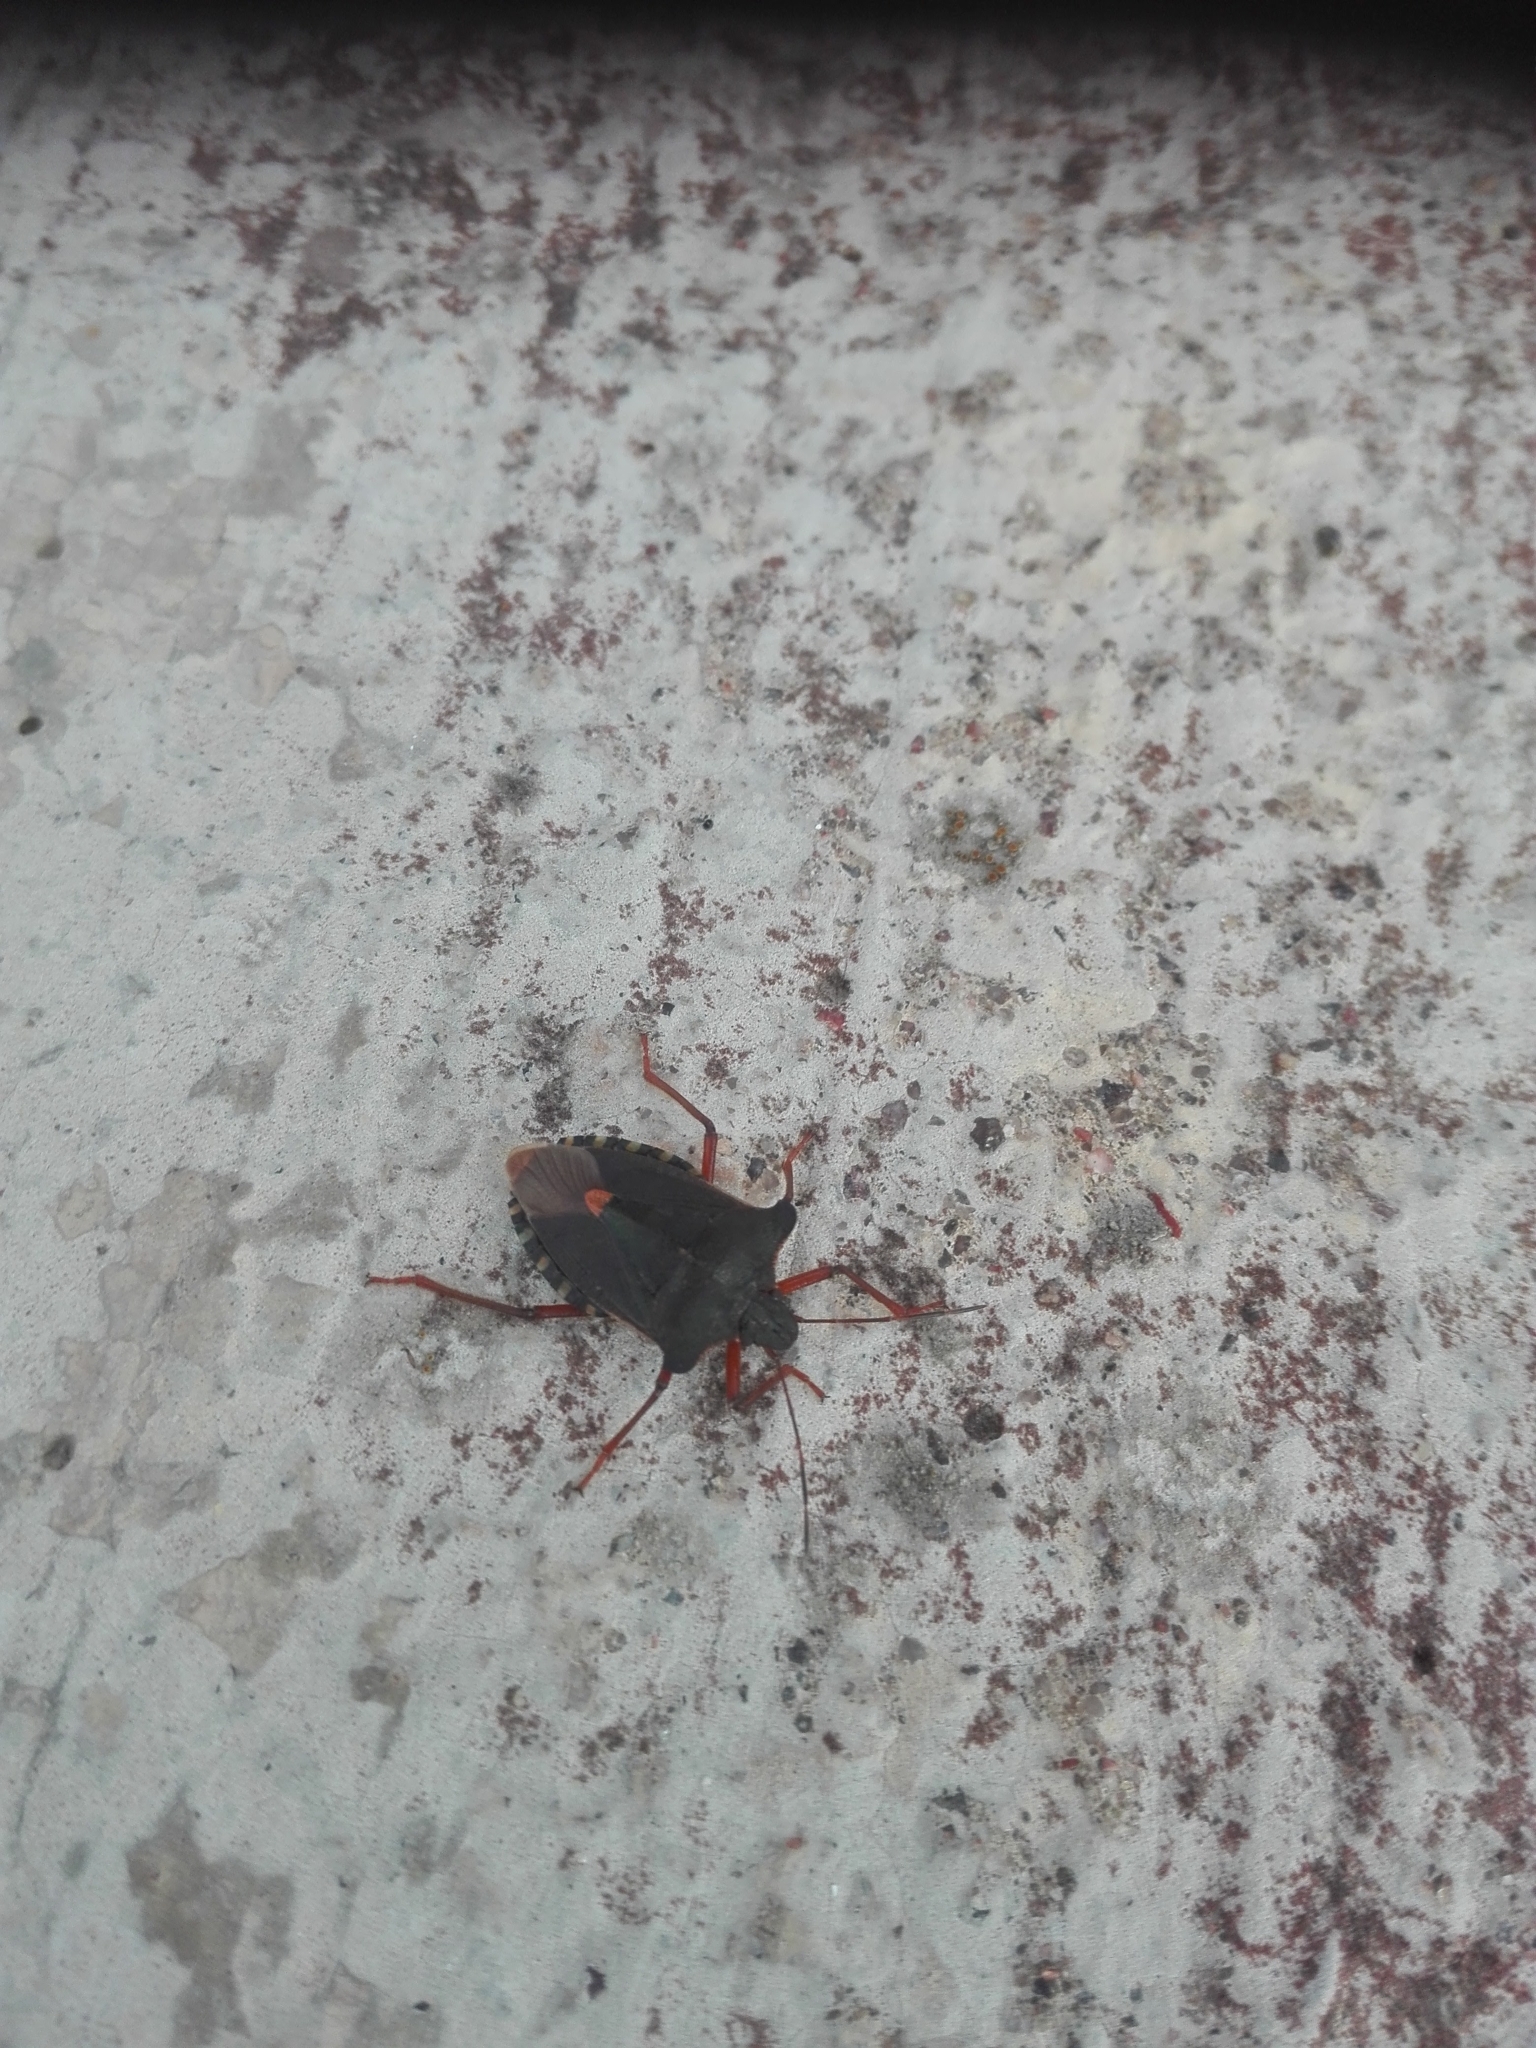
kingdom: Animalia
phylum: Arthropoda
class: Insecta
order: Hemiptera
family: Pentatomidae
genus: Pentatoma
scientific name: Pentatoma rufipes
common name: Forest bug
